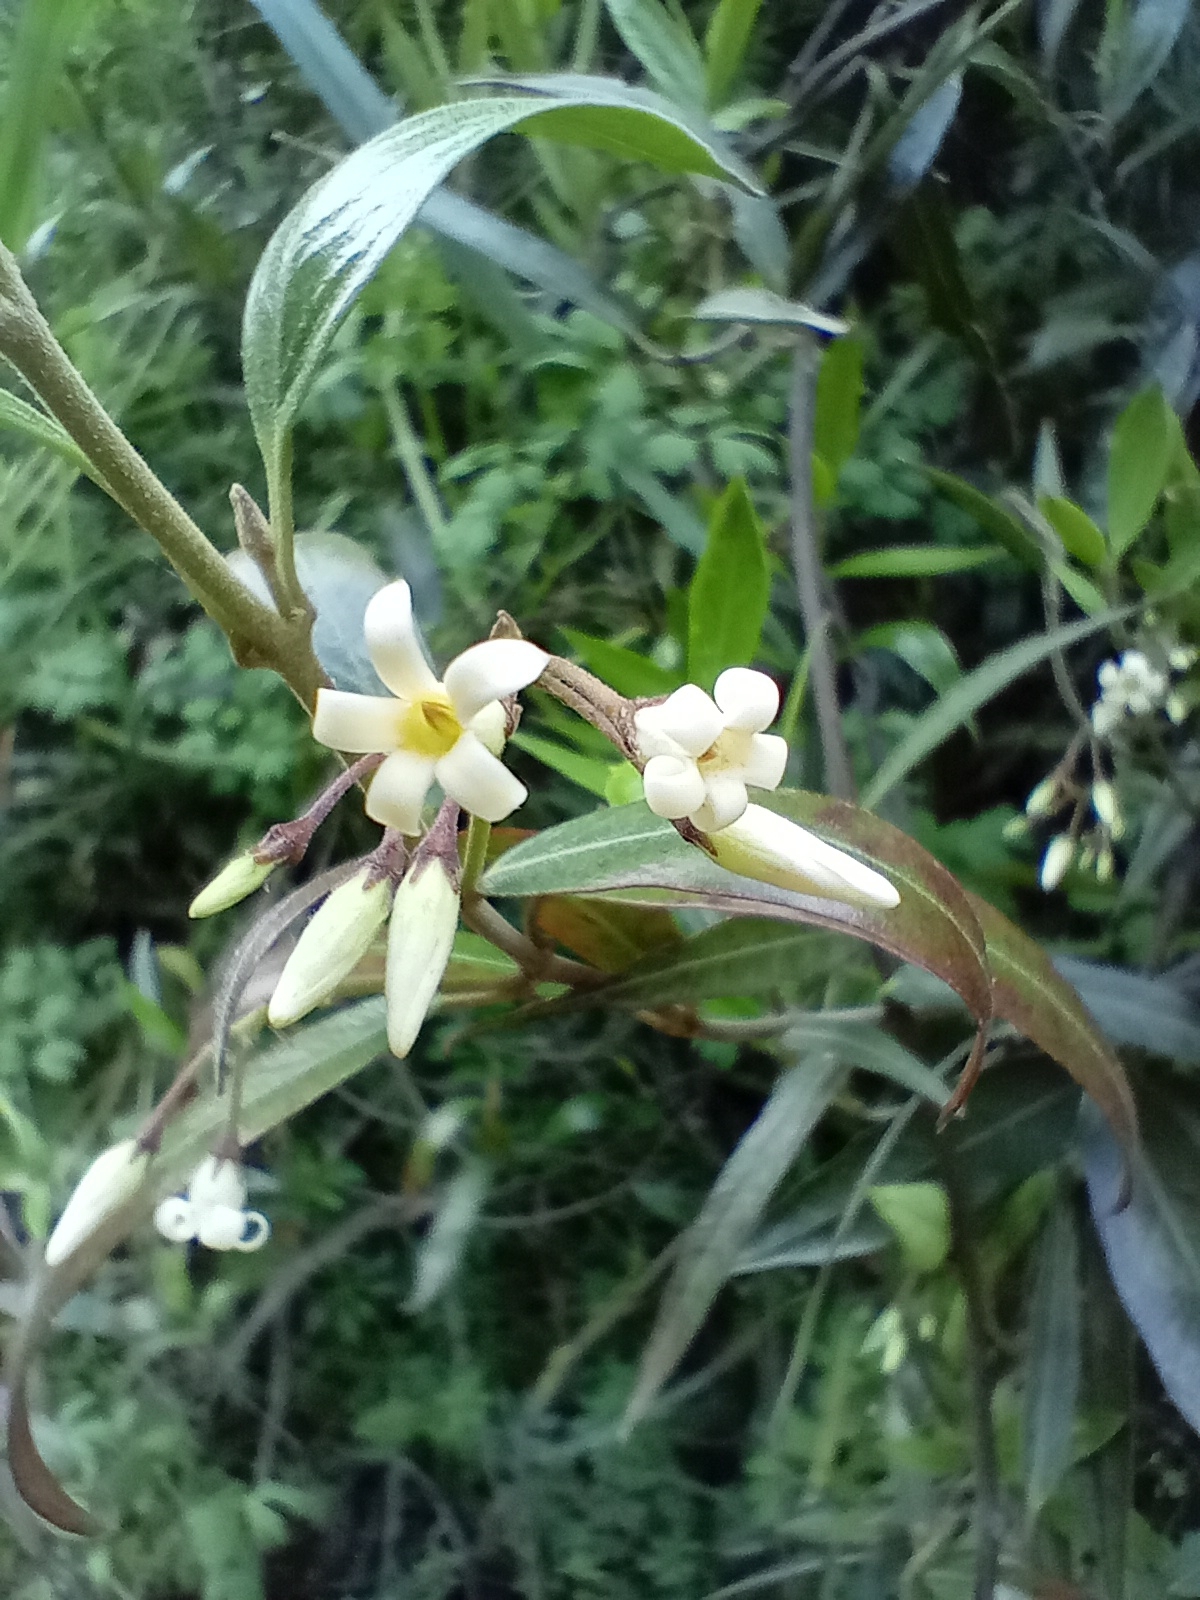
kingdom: Plantae
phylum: Tracheophyta
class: Magnoliopsida
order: Gentianales
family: Apocynaceae
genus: Parsonsia
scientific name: Parsonsia heterophylla
